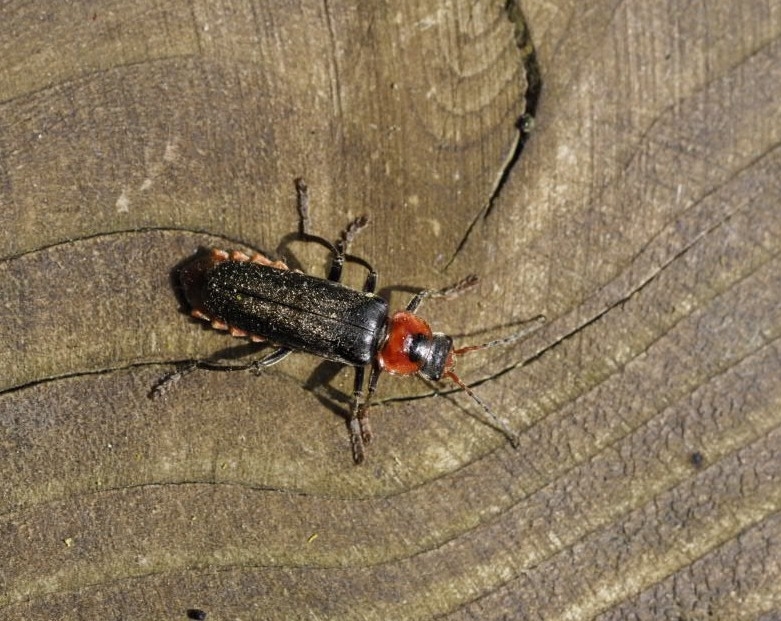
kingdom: Animalia
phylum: Arthropoda
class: Insecta
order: Coleoptera
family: Cantharidae
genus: Cantharis
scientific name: Cantharis fusca
